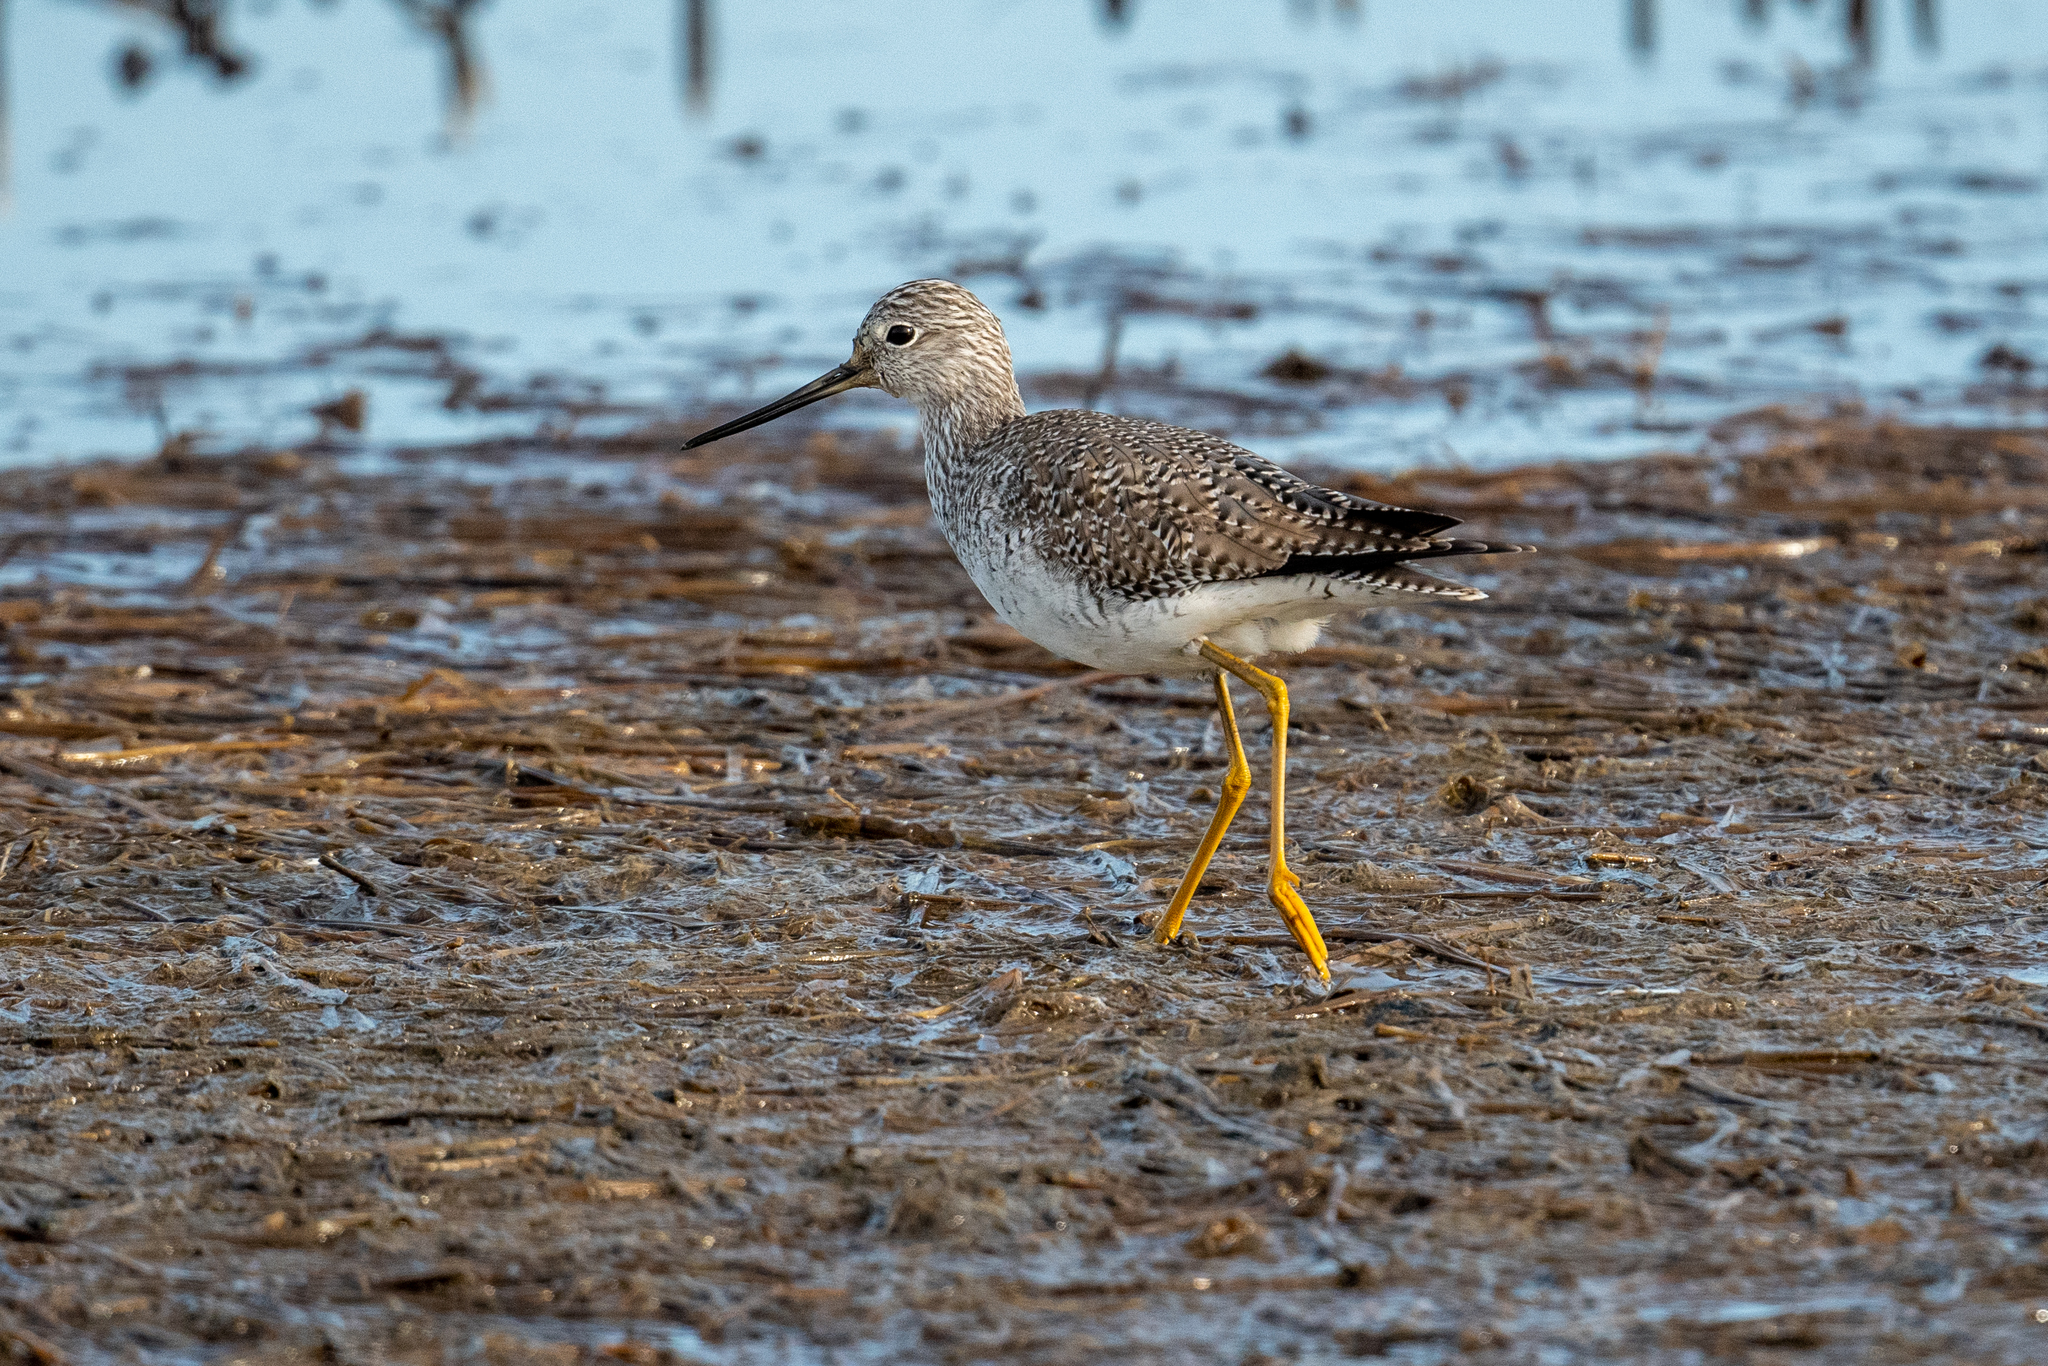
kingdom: Animalia
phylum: Chordata
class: Aves
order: Charadriiformes
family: Scolopacidae
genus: Tringa
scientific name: Tringa melanoleuca
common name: Greater yellowlegs
